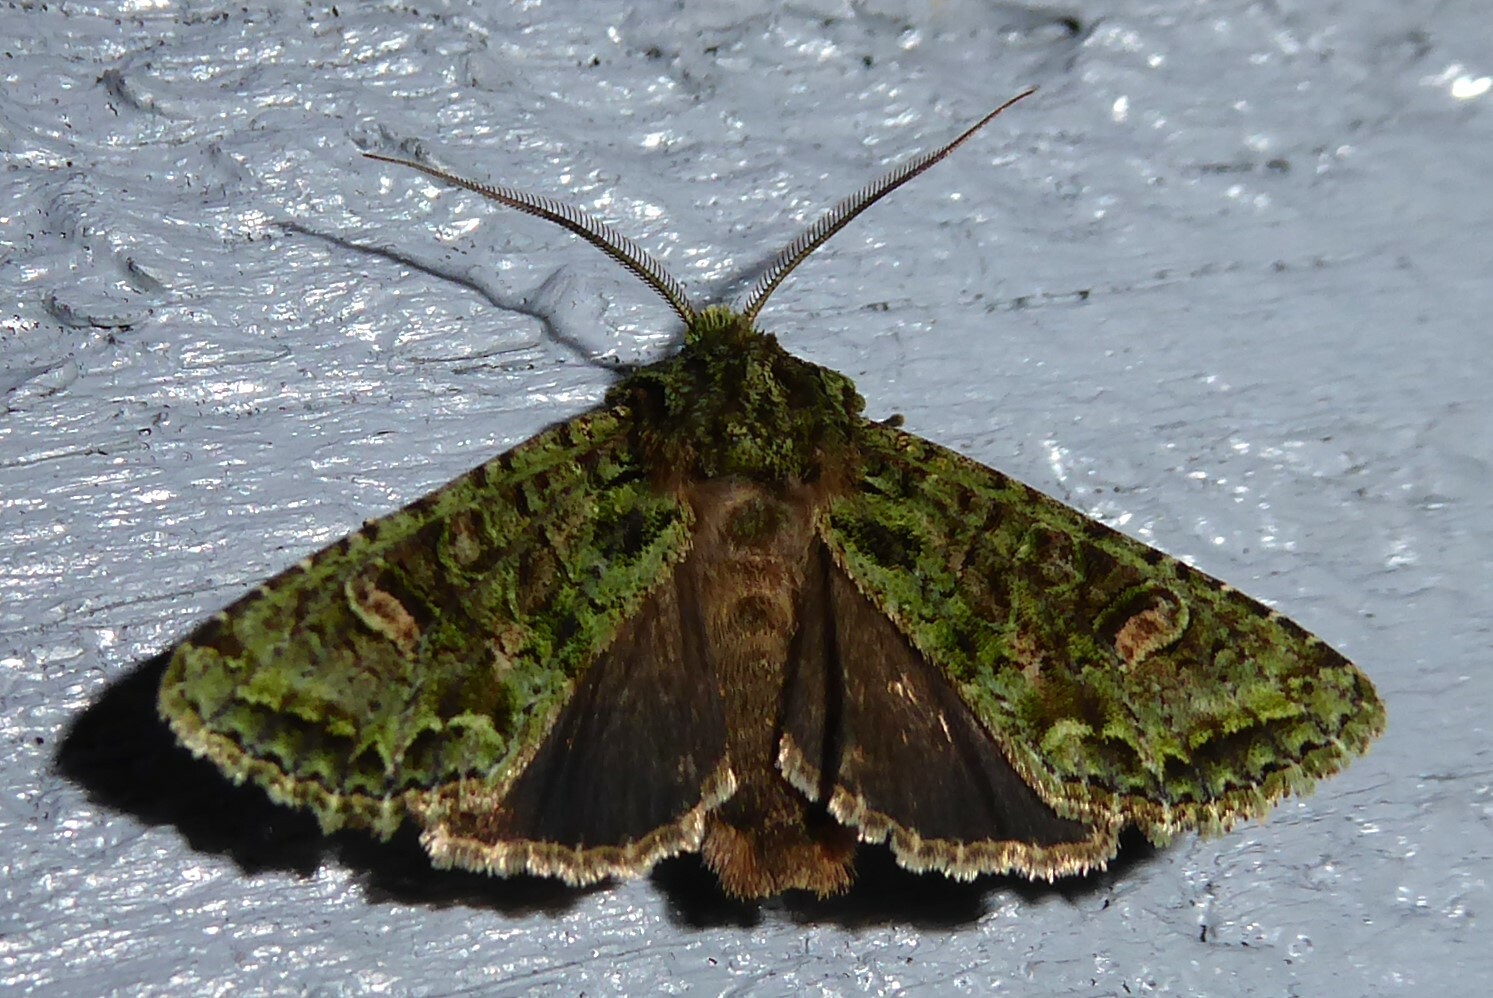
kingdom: Animalia
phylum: Arthropoda
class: Insecta
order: Lepidoptera
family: Noctuidae
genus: Ichneutica
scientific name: Ichneutica
